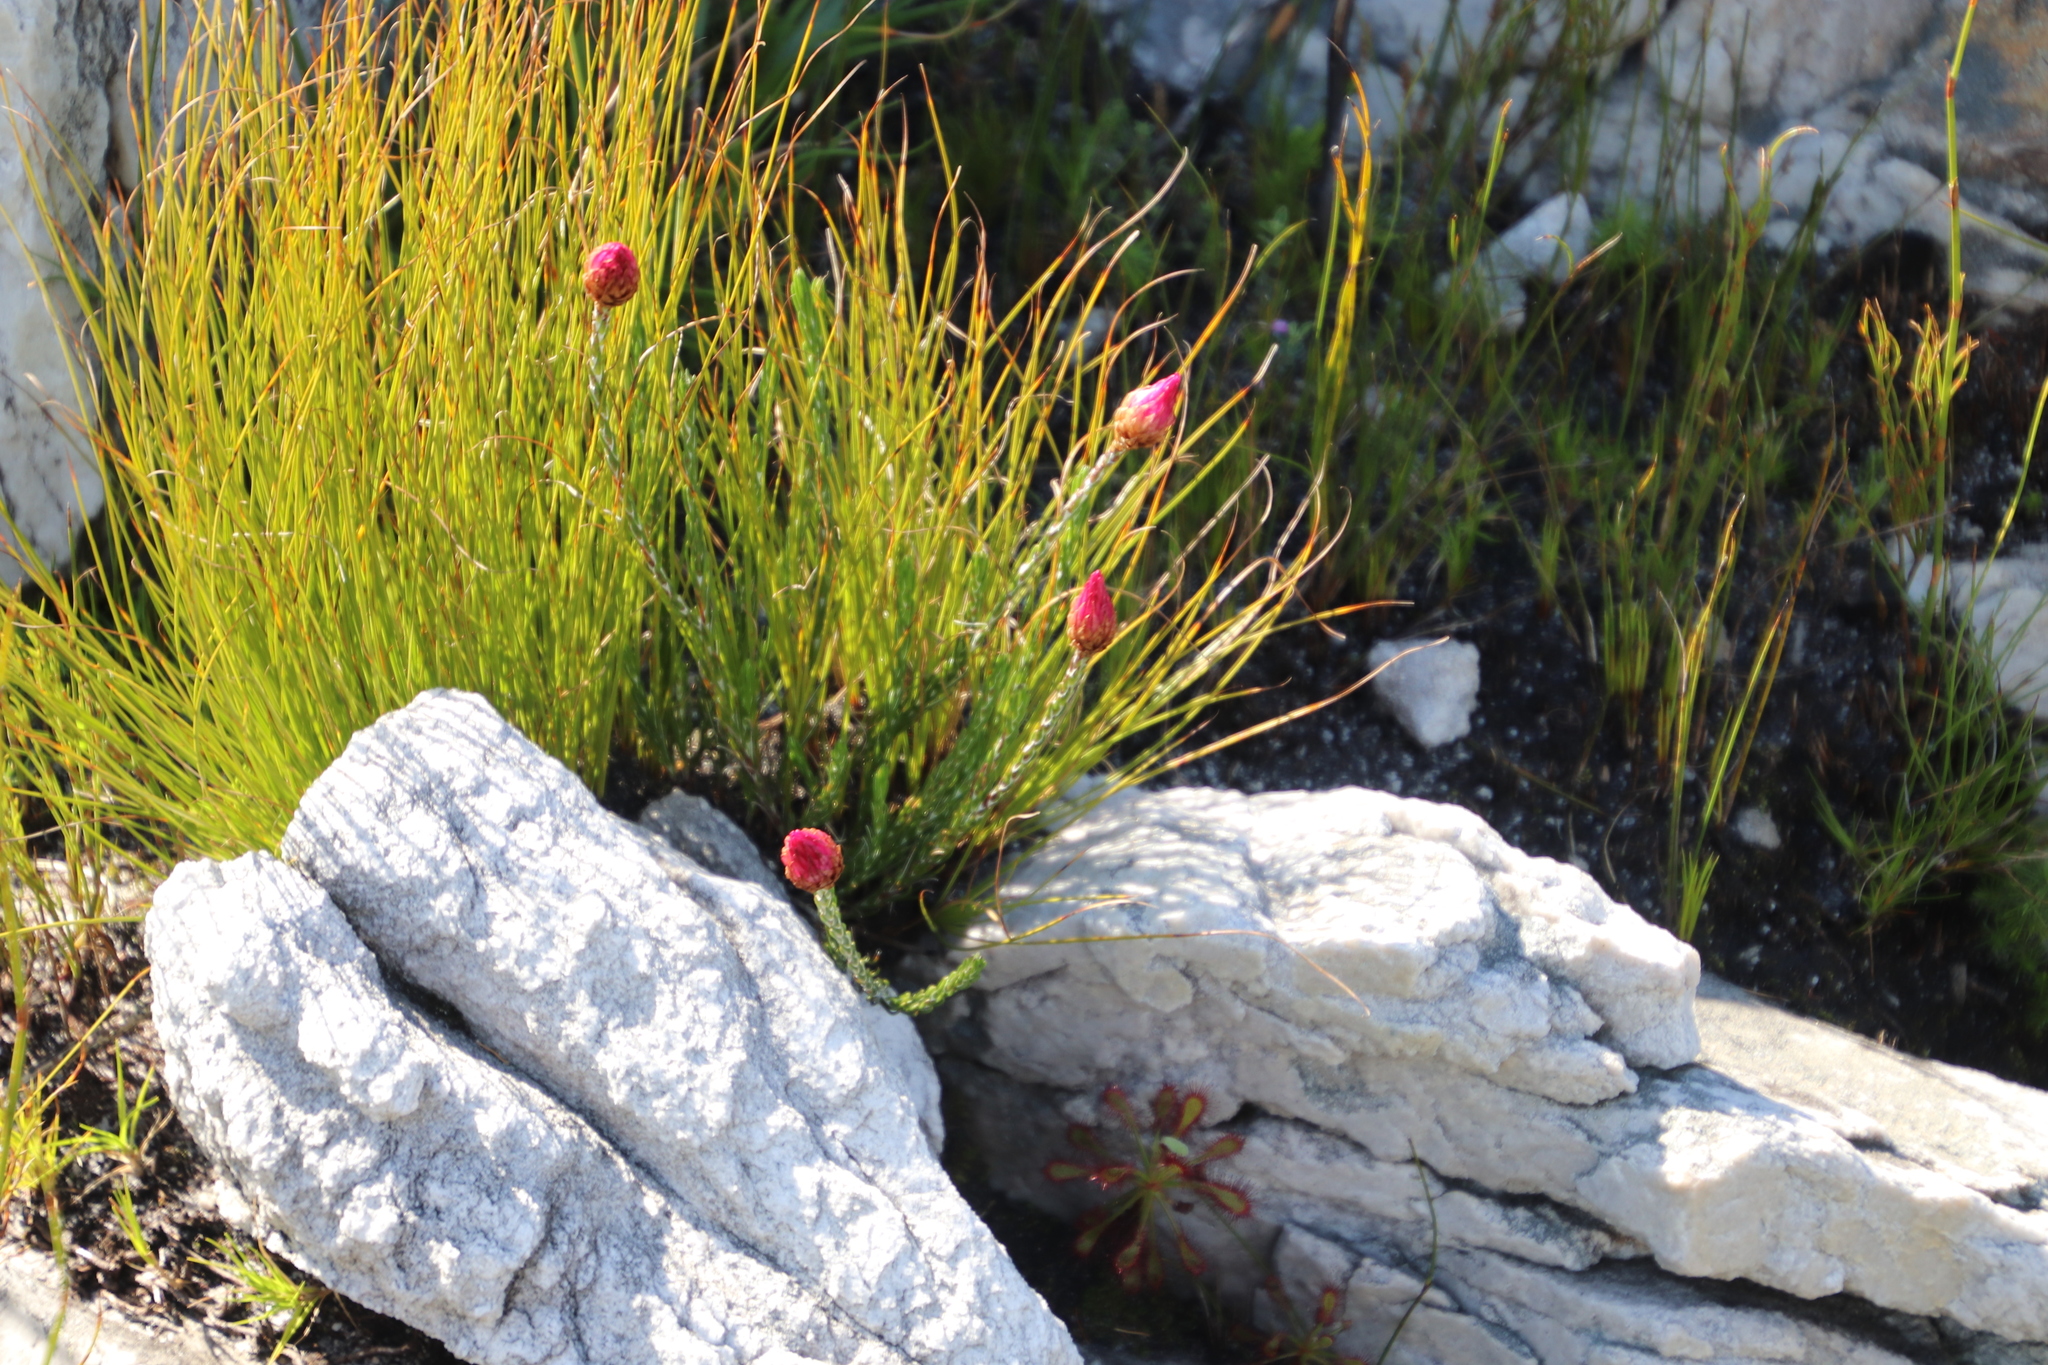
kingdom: Plantae
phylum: Tracheophyta
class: Magnoliopsida
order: Asterales
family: Asteraceae
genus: Edmondia
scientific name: Edmondia pinifolia
